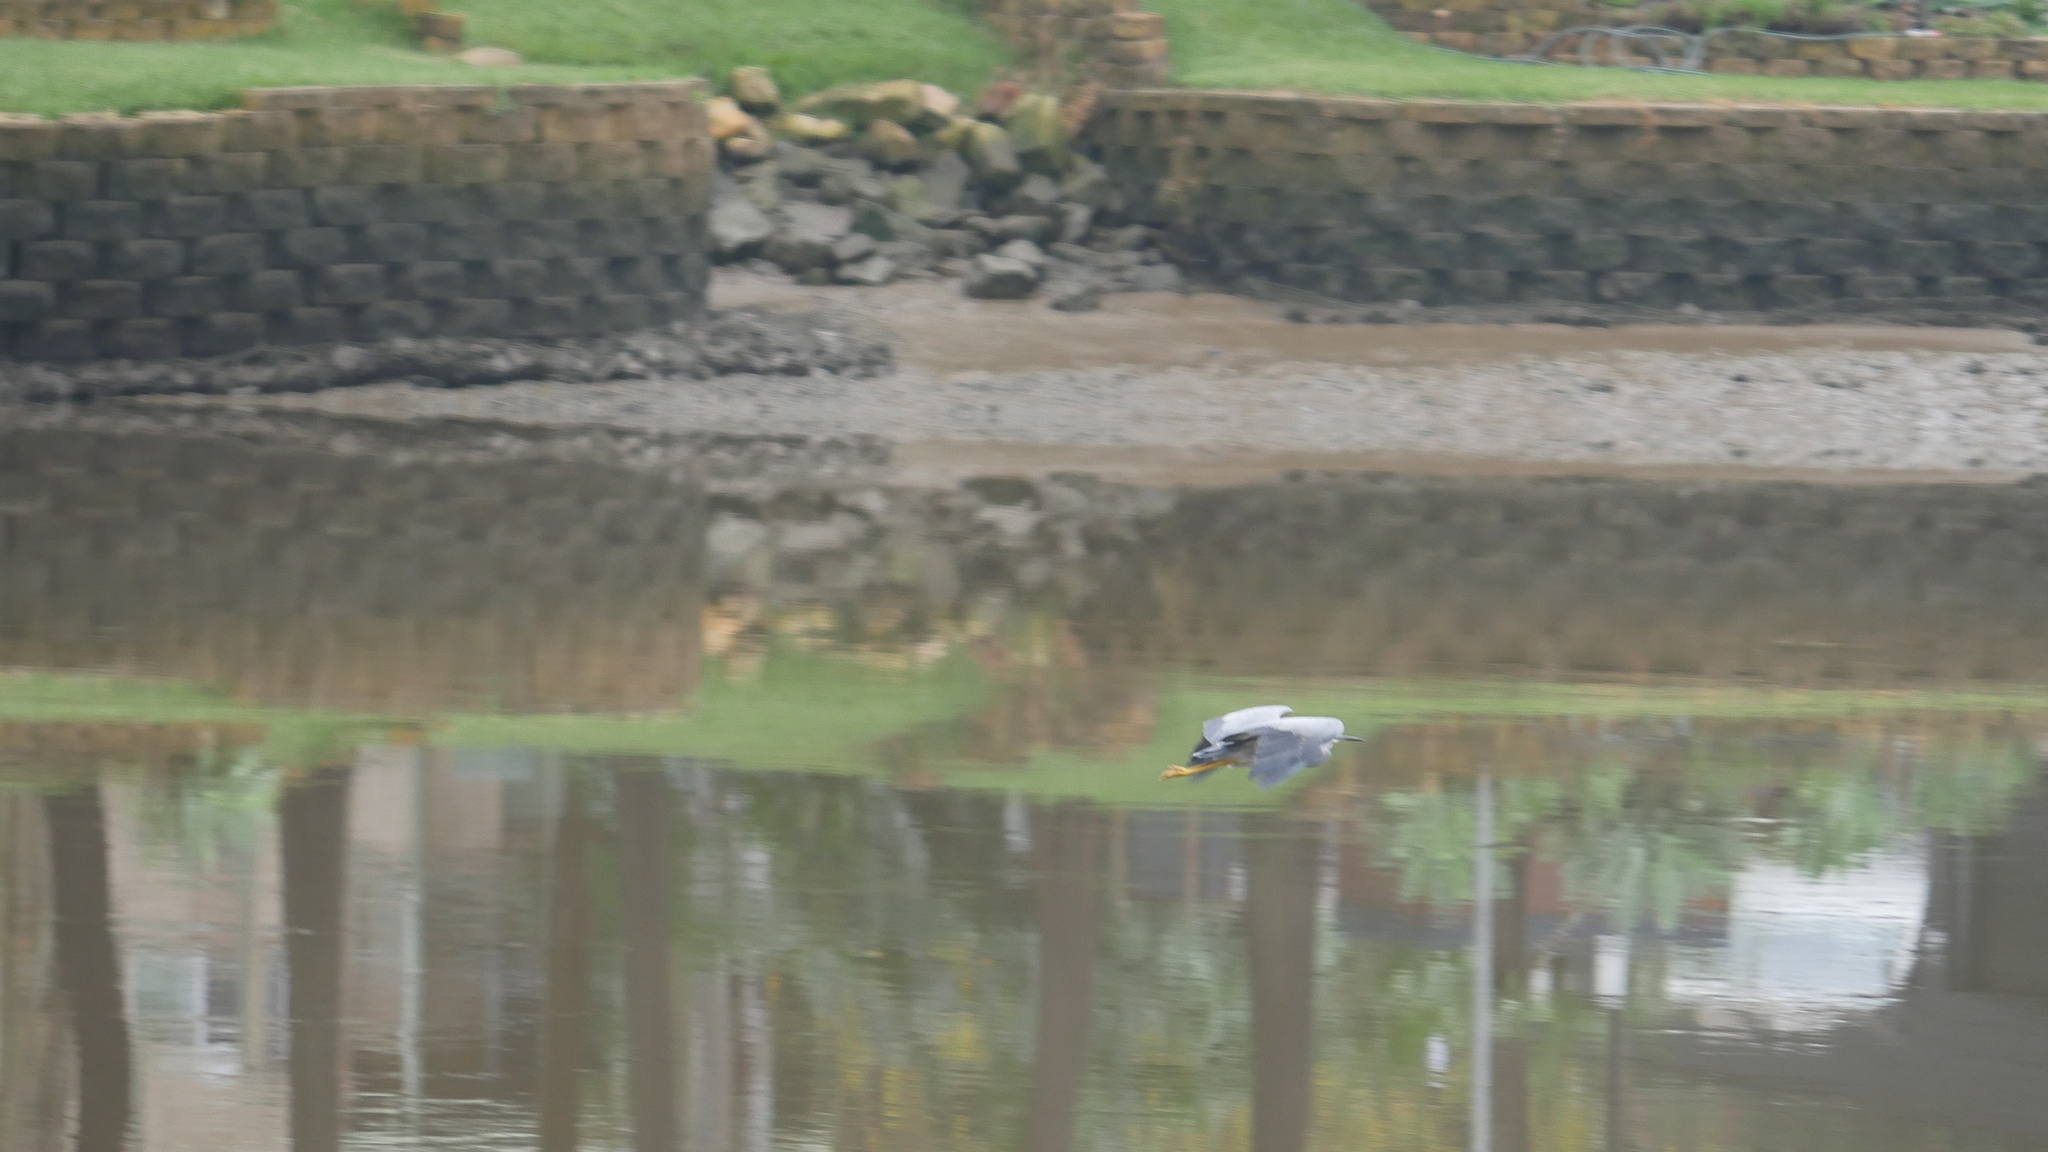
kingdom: Animalia
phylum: Chordata
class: Aves
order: Pelecaniformes
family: Ardeidae
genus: Egretta
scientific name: Egretta novaehollandiae
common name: White-faced heron
